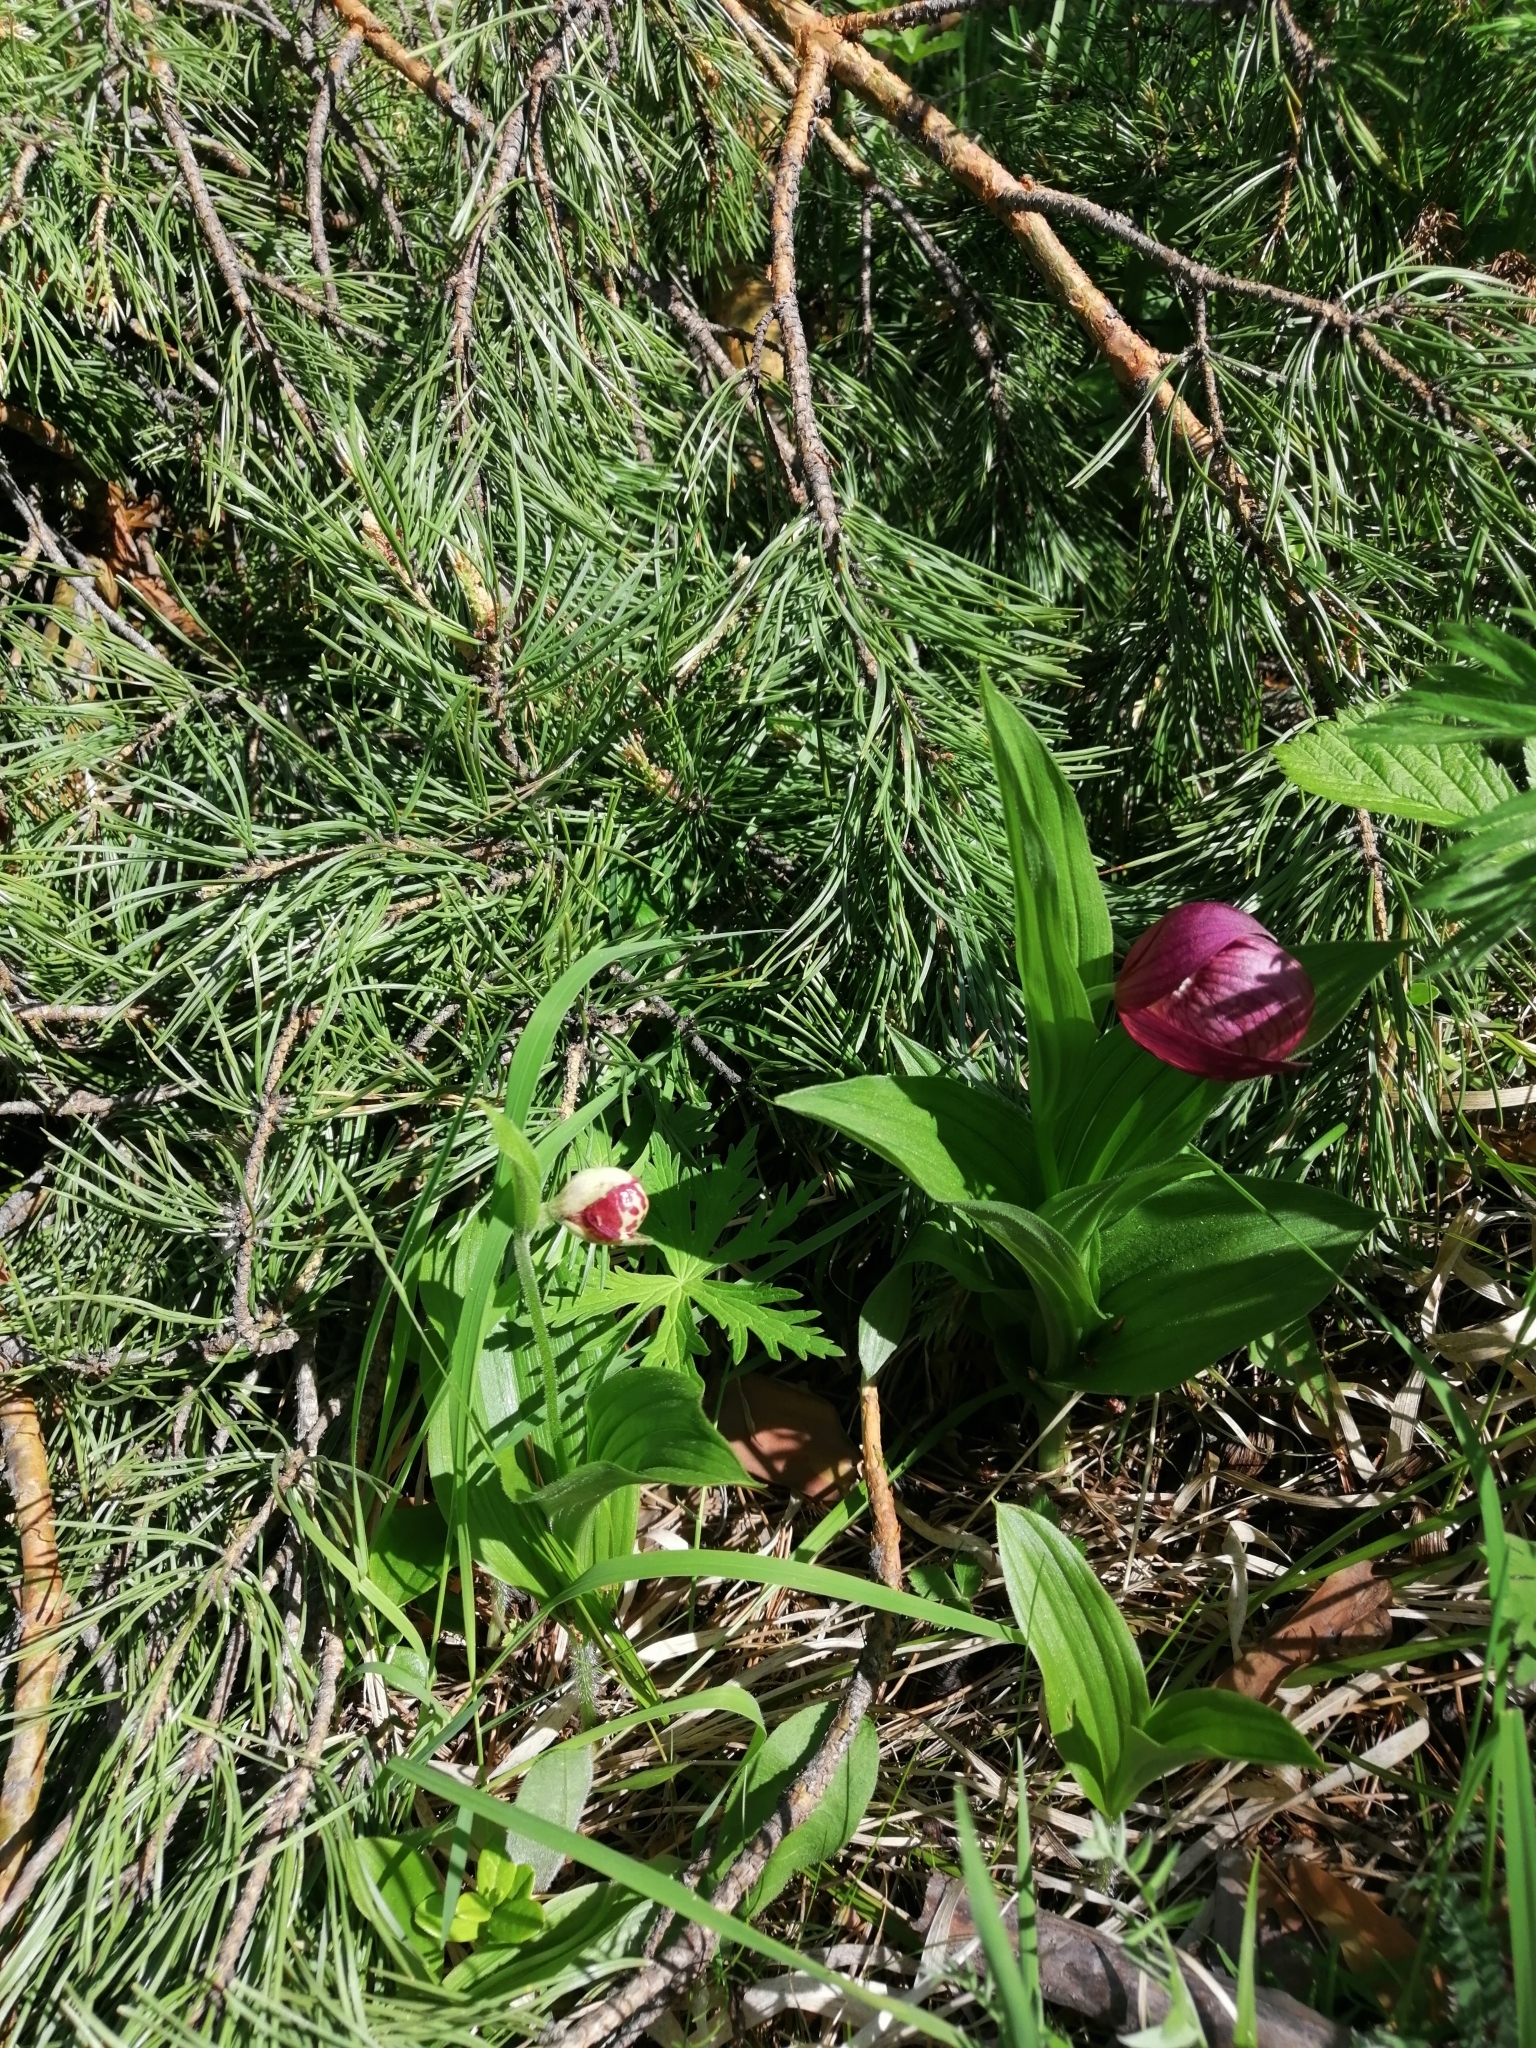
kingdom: Plantae
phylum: Tracheophyta
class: Liliopsida
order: Asparagales
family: Orchidaceae
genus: Cypripedium
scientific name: Cypripedium macranthos
